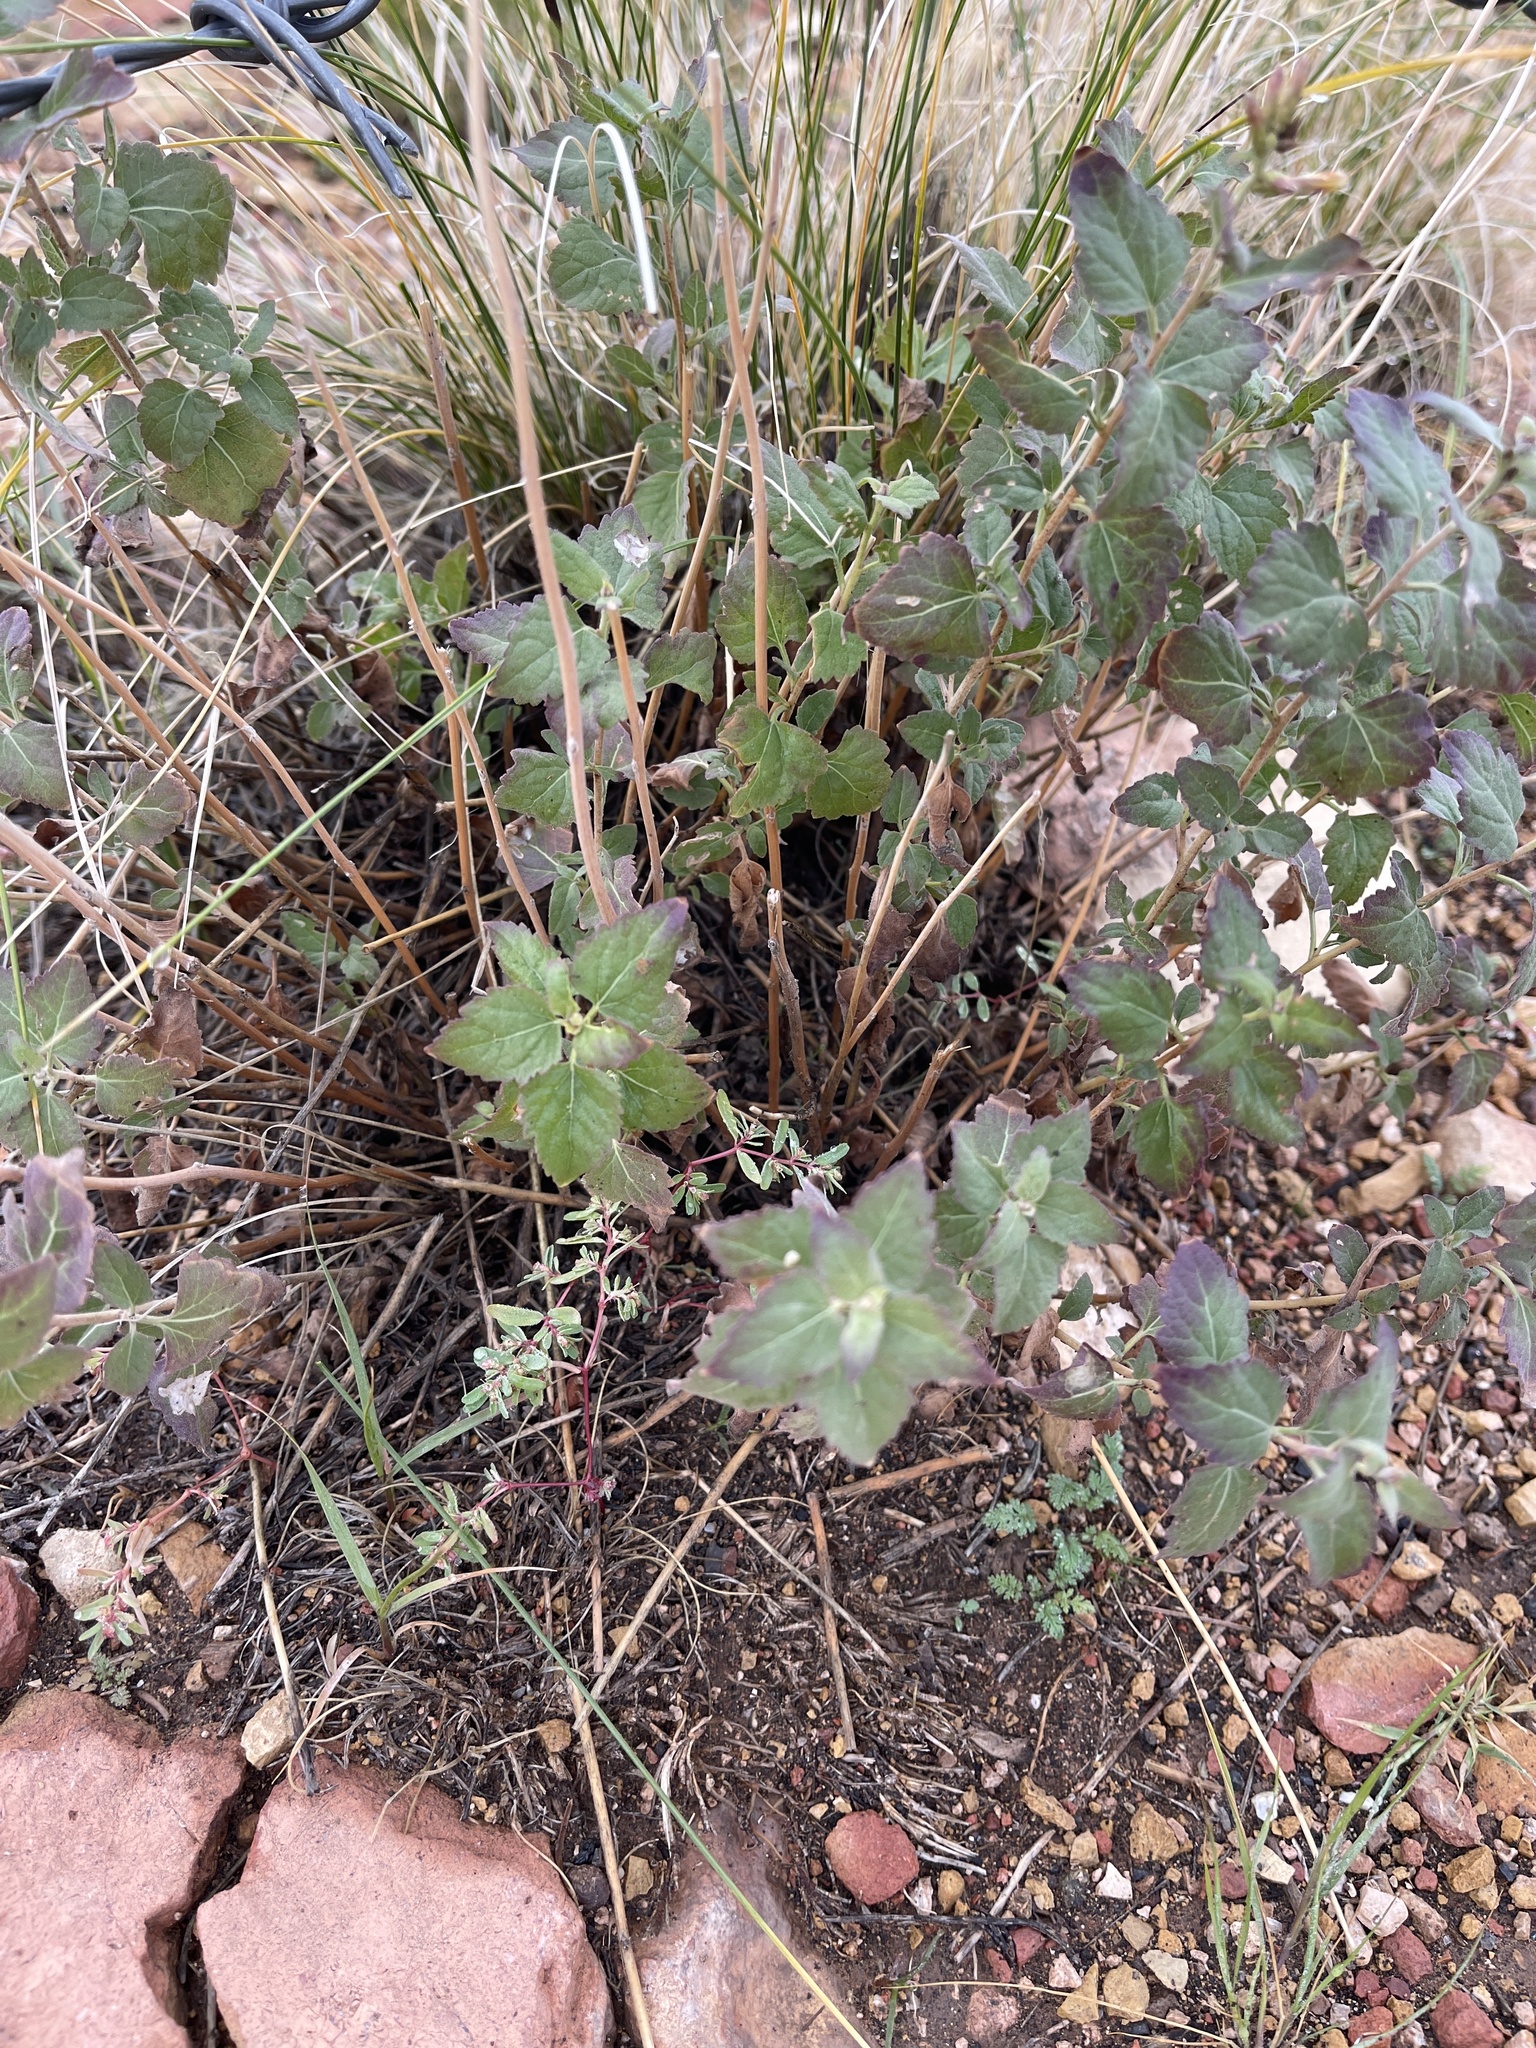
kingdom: Plantae
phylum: Tracheophyta
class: Magnoliopsida
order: Asterales
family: Asteraceae
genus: Brickellia
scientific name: Brickellia californica
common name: California brickellbush
